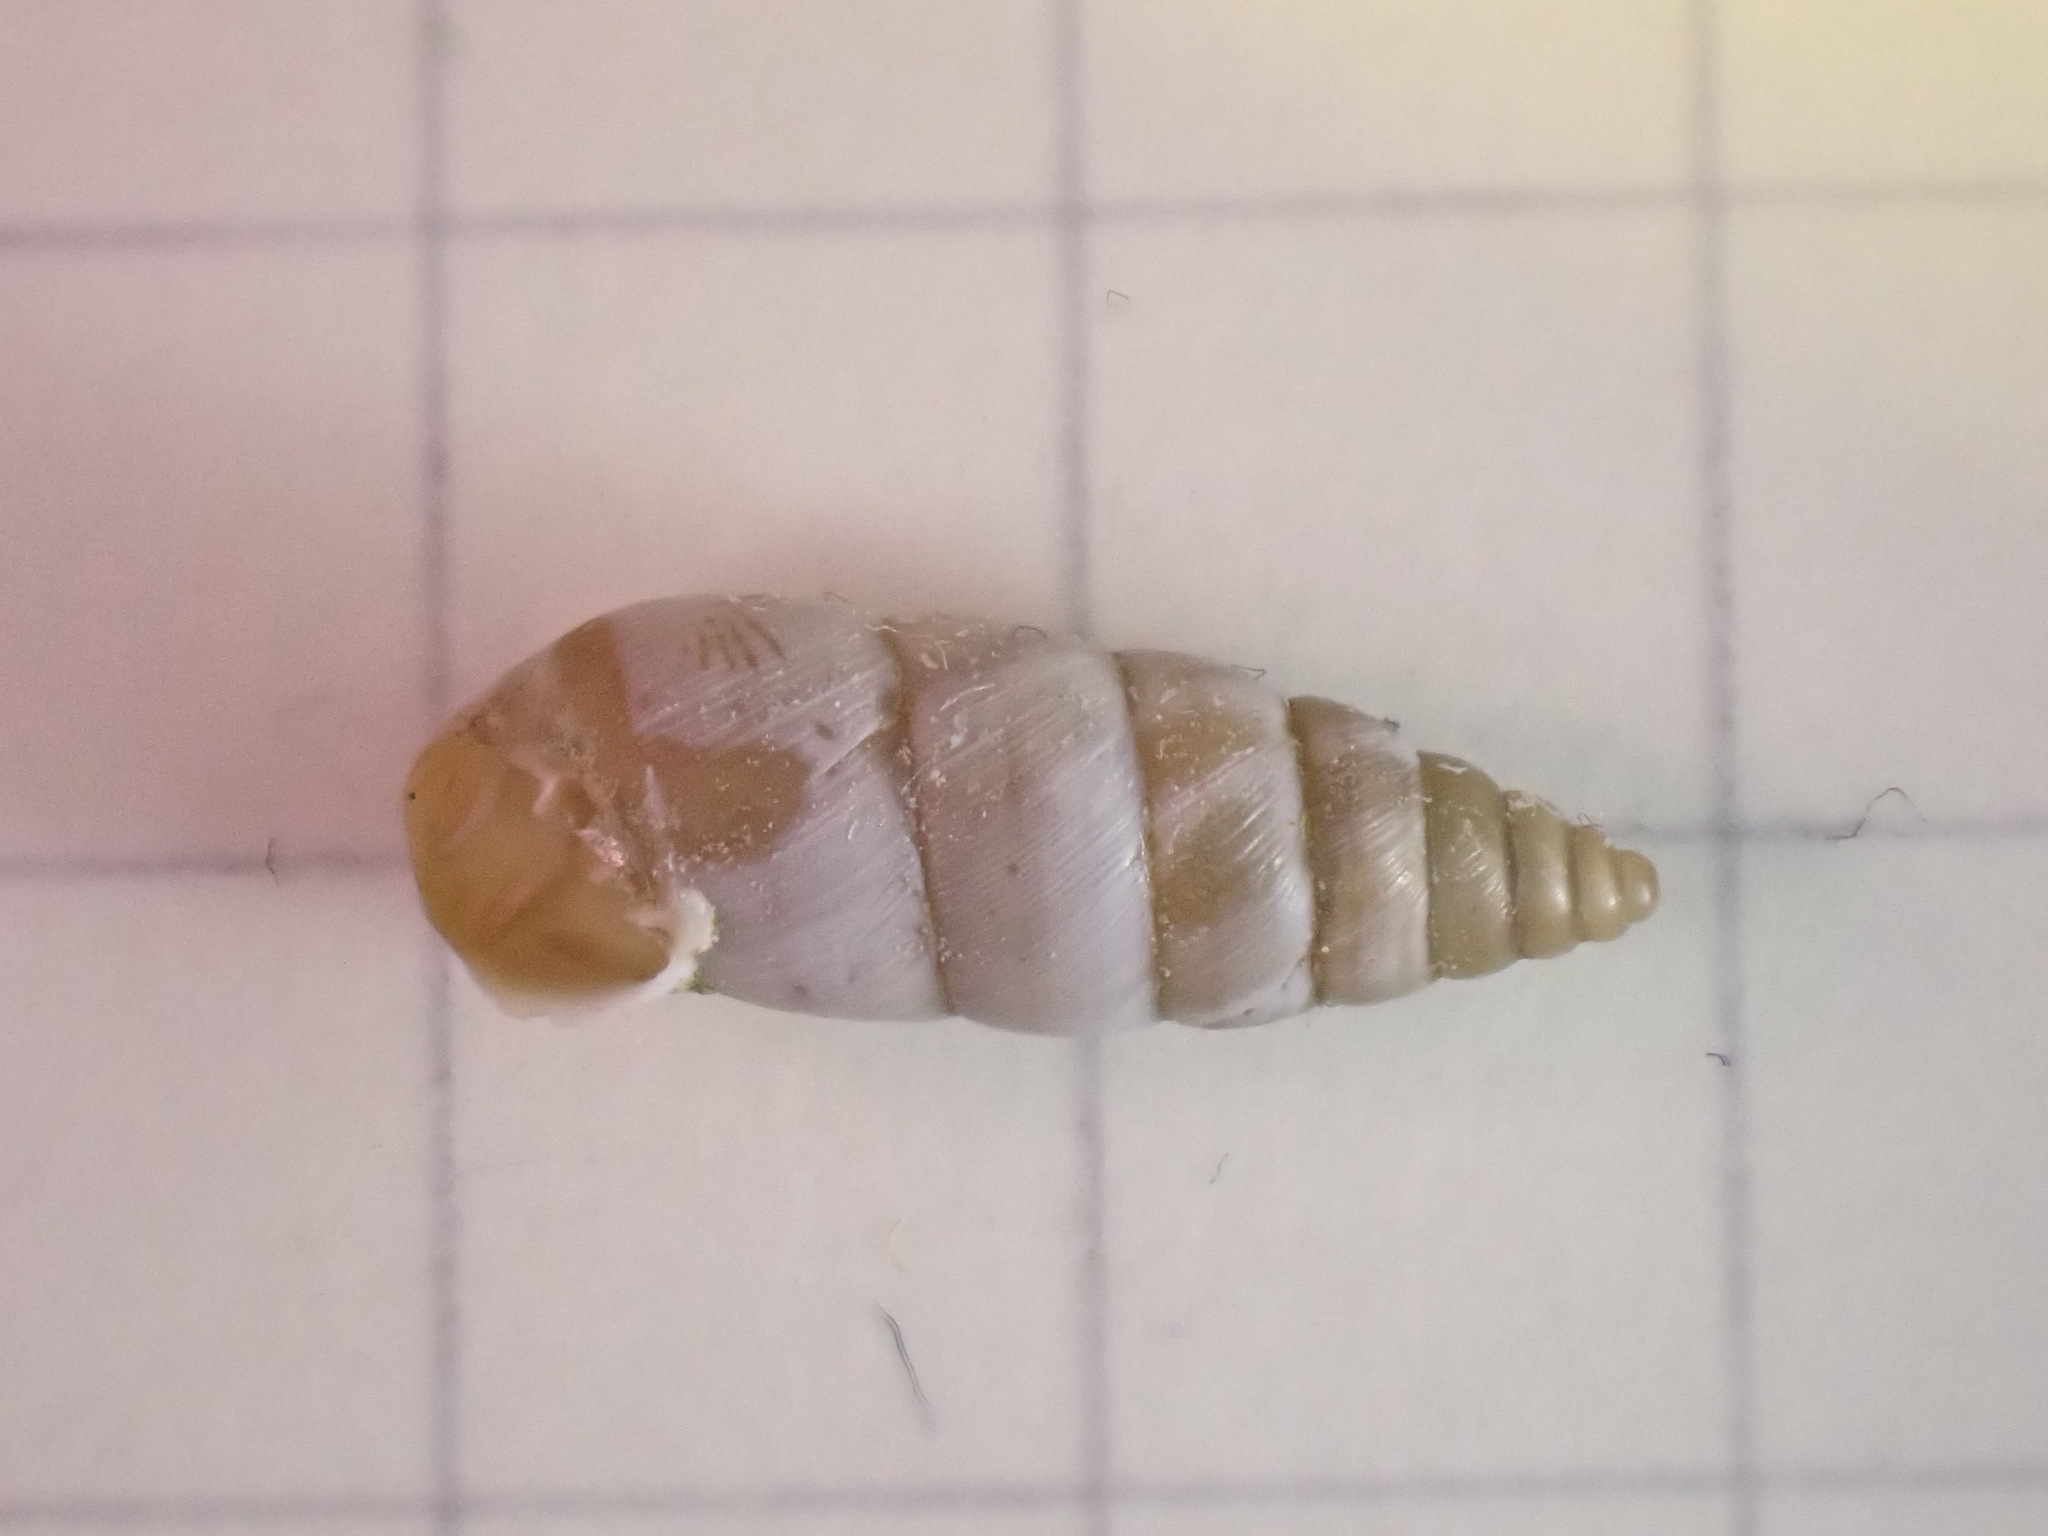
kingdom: Animalia
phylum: Mollusca
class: Gastropoda
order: Stylommatophora
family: Chondrinidae
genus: Solatopupa
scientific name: Solatopupa similis
